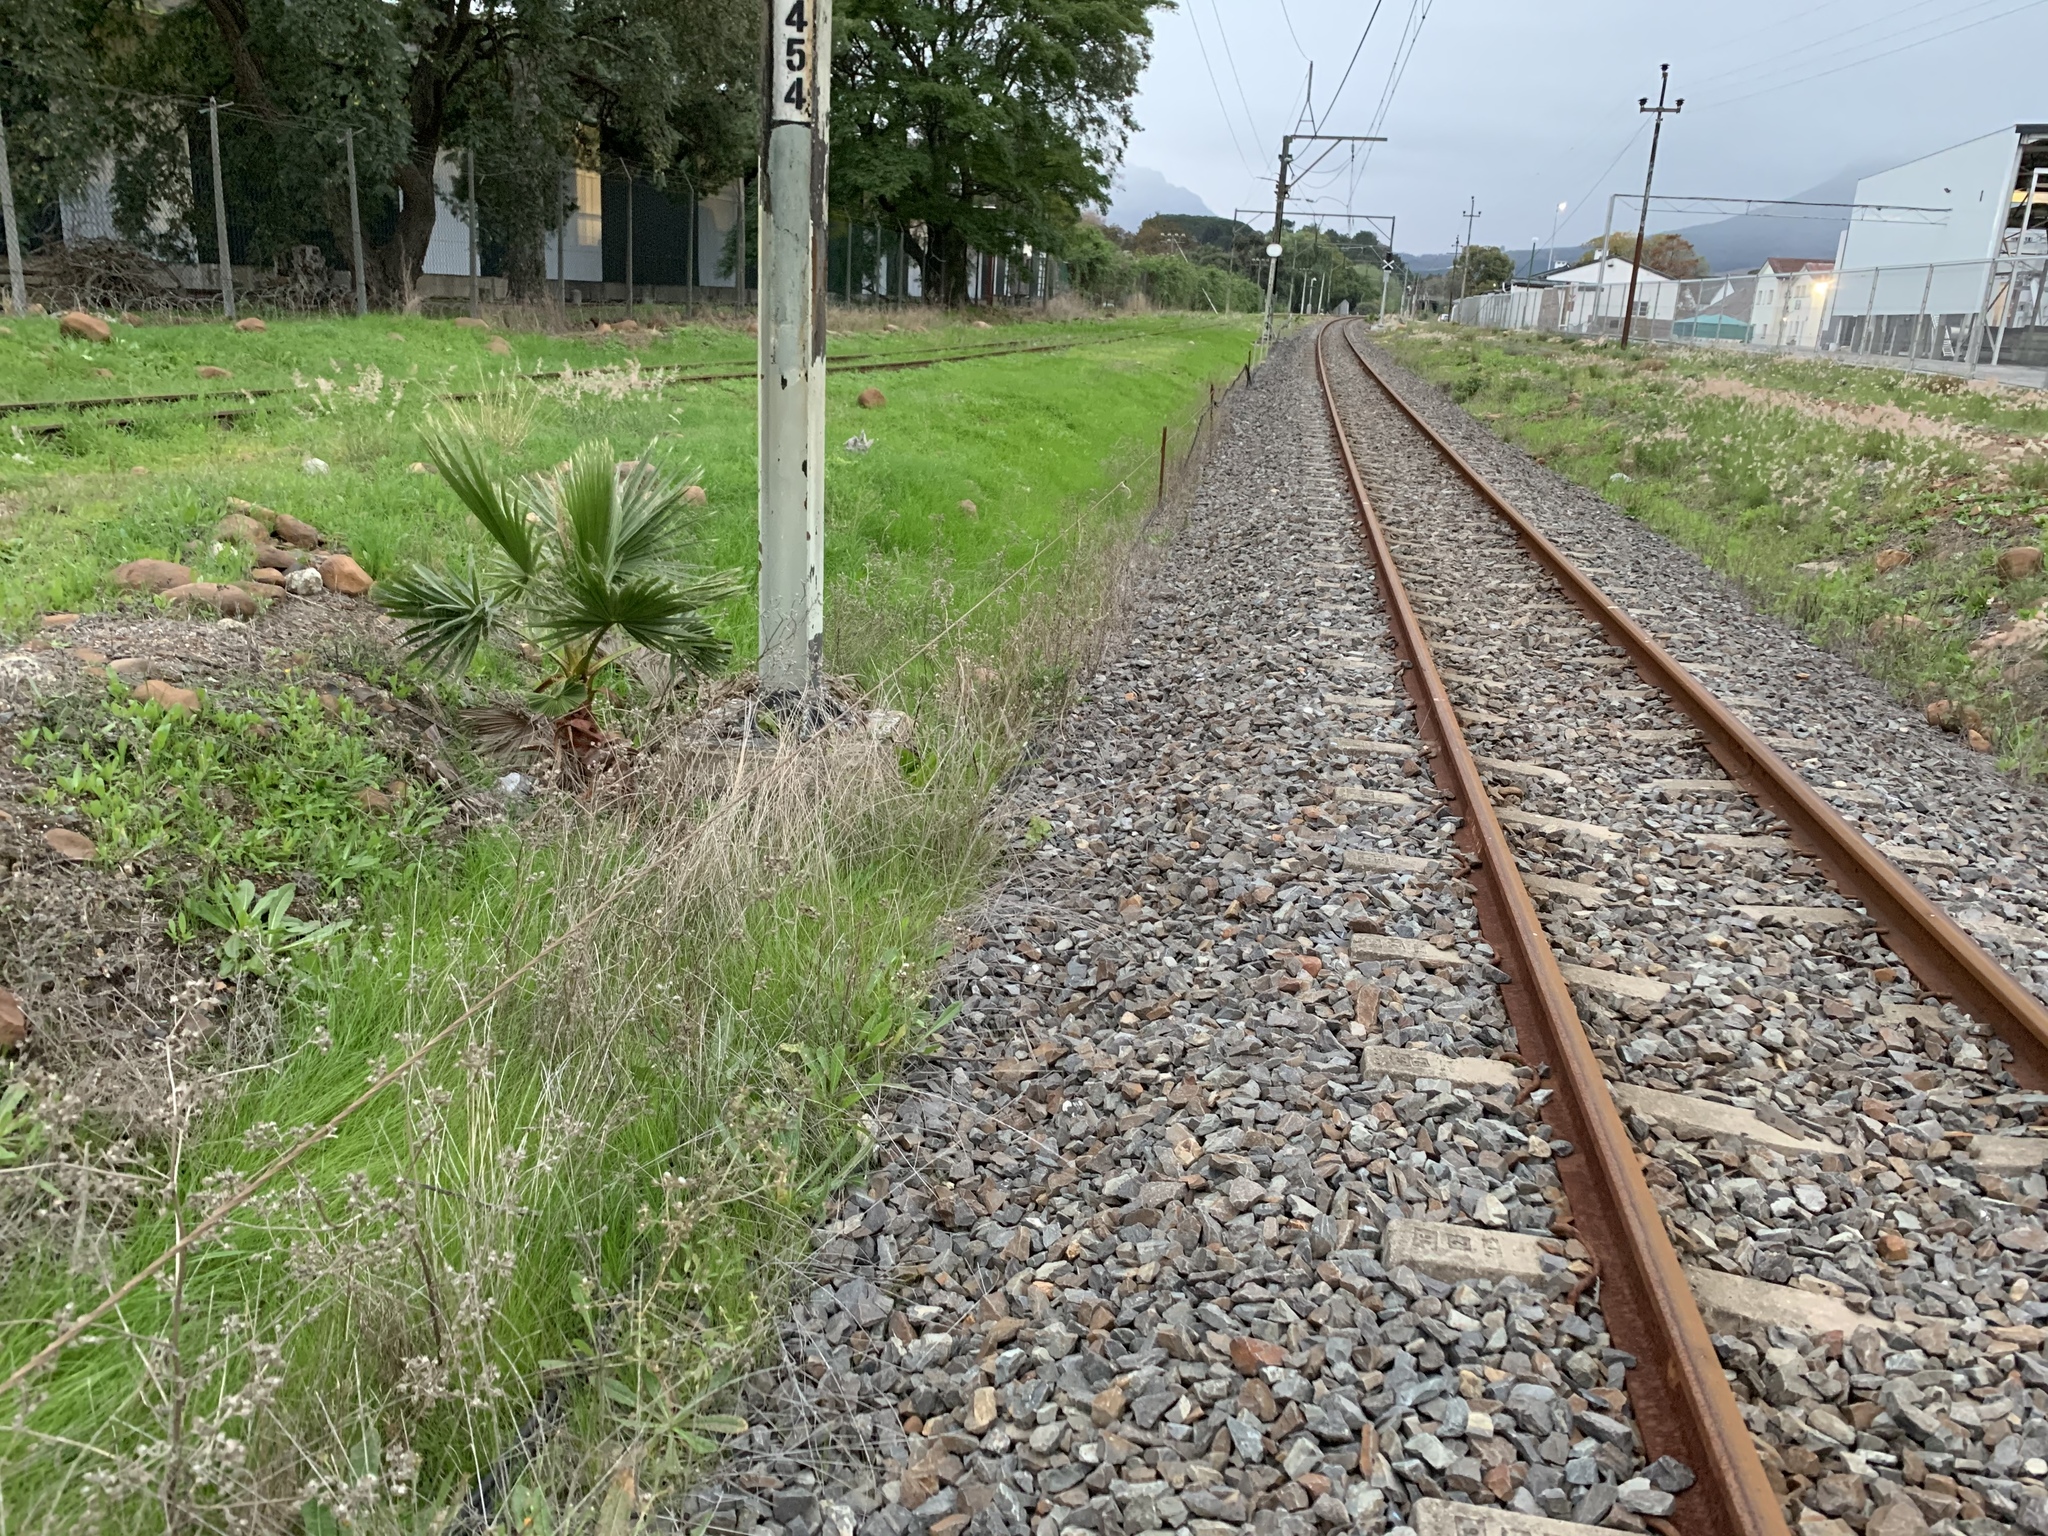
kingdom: Plantae
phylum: Tracheophyta
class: Liliopsida
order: Arecales
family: Arecaceae
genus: Washingtonia
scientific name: Washingtonia robusta
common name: Mexican fan palm
